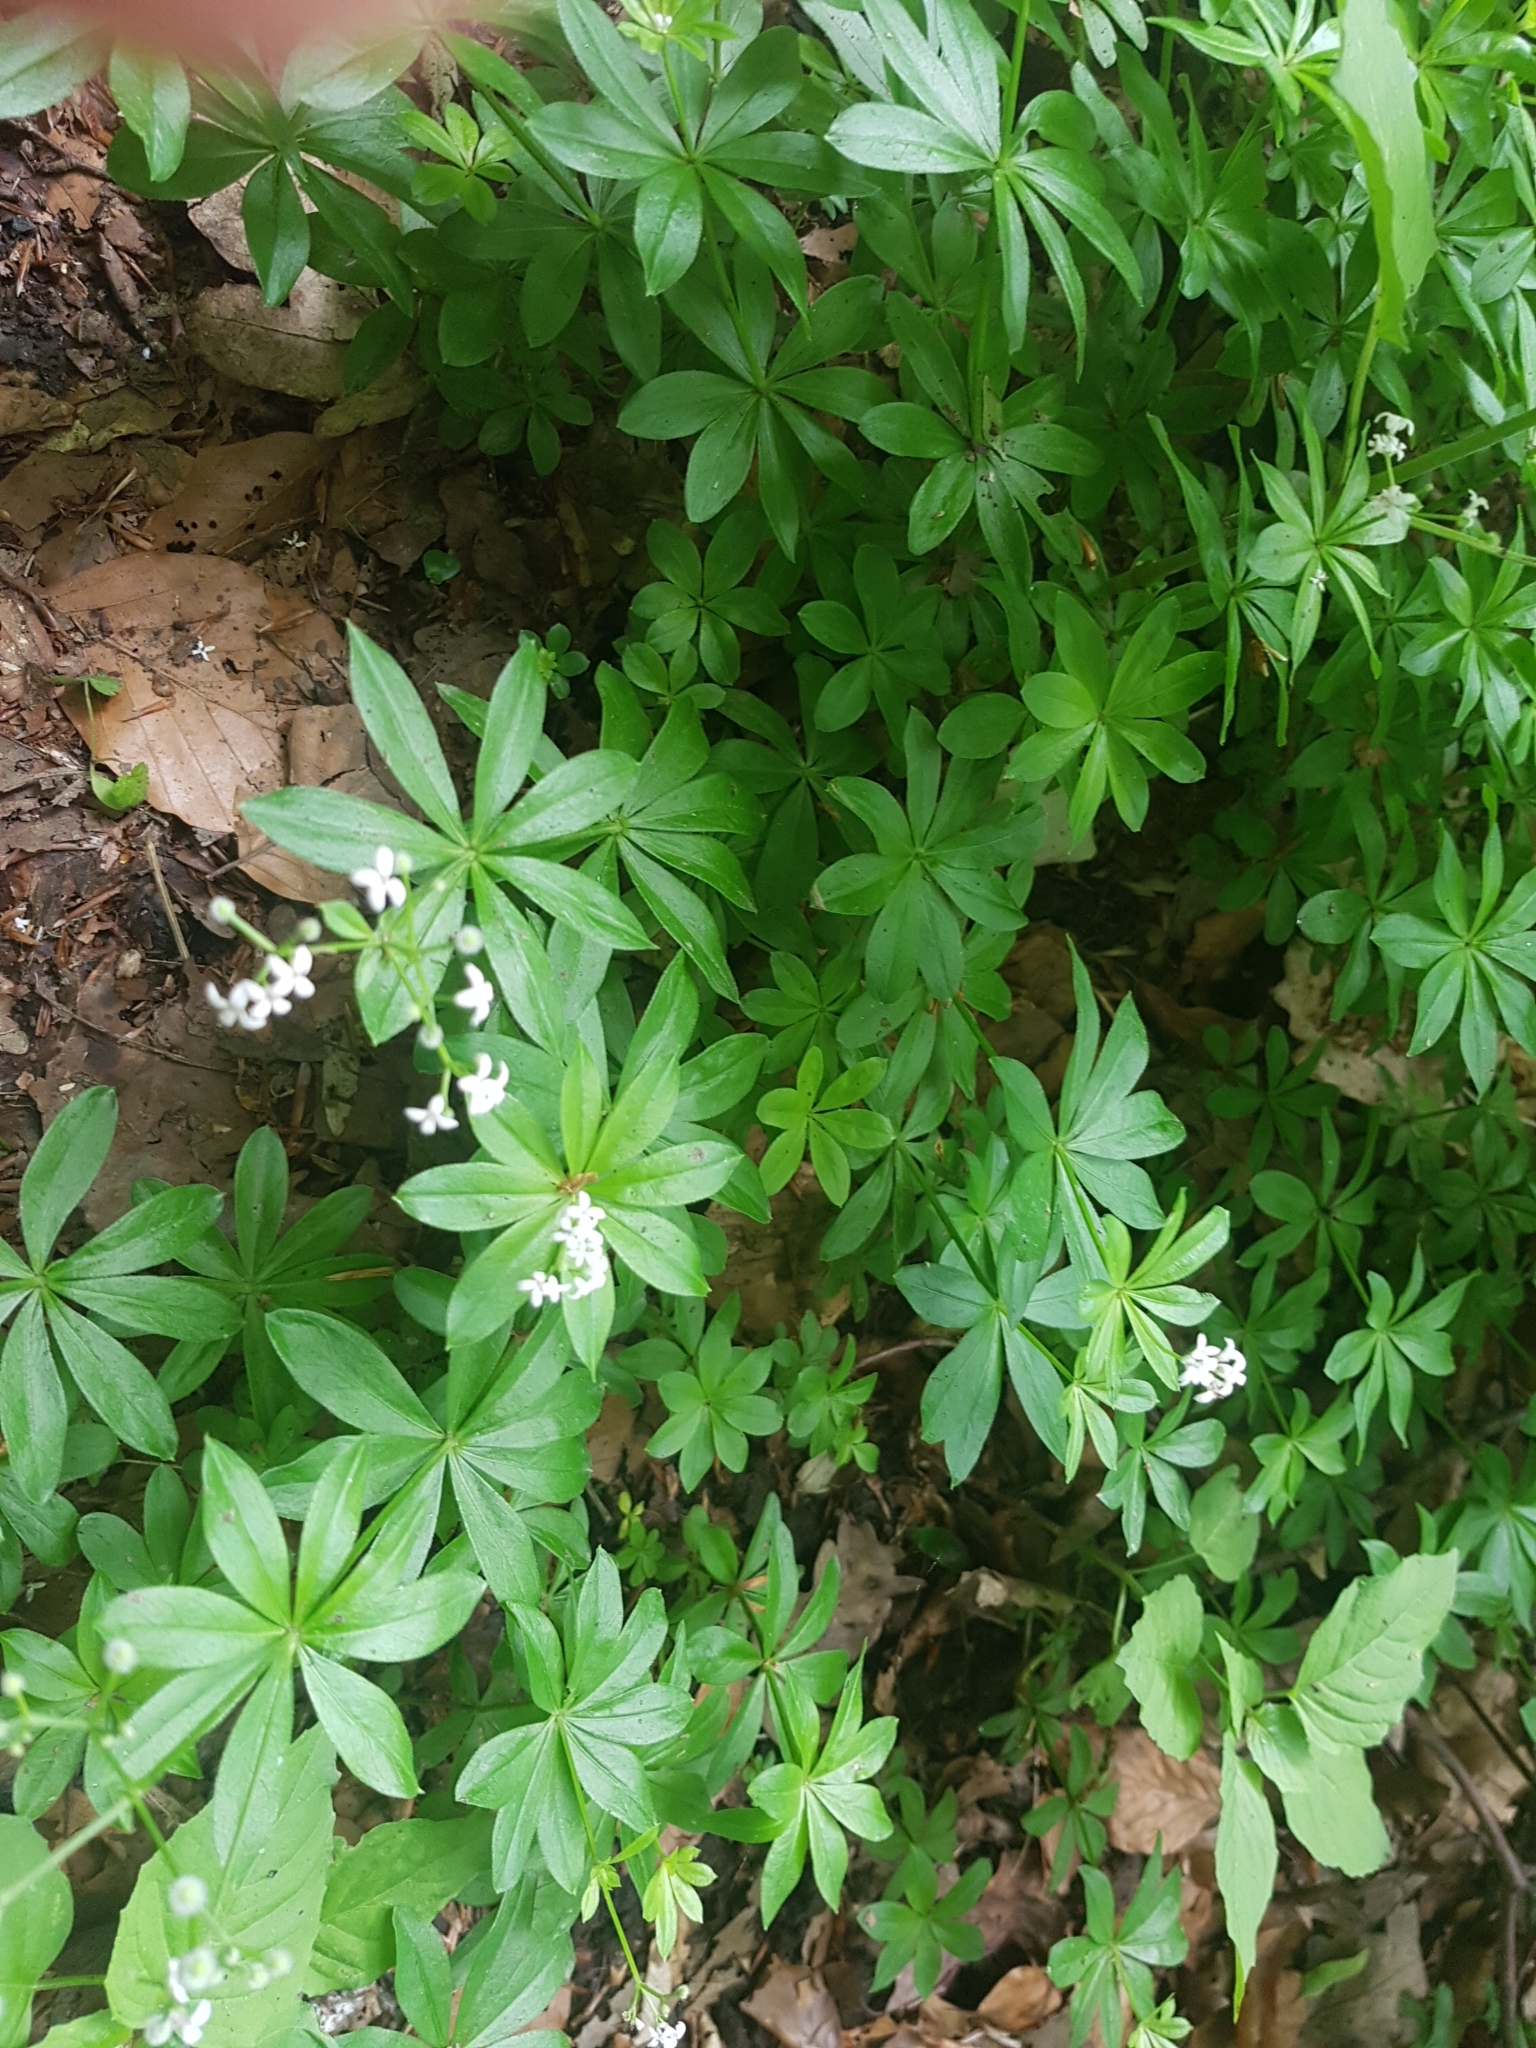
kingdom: Plantae
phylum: Tracheophyta
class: Magnoliopsida
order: Gentianales
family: Rubiaceae
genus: Galium
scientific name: Galium odoratum
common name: Sweet woodruff
